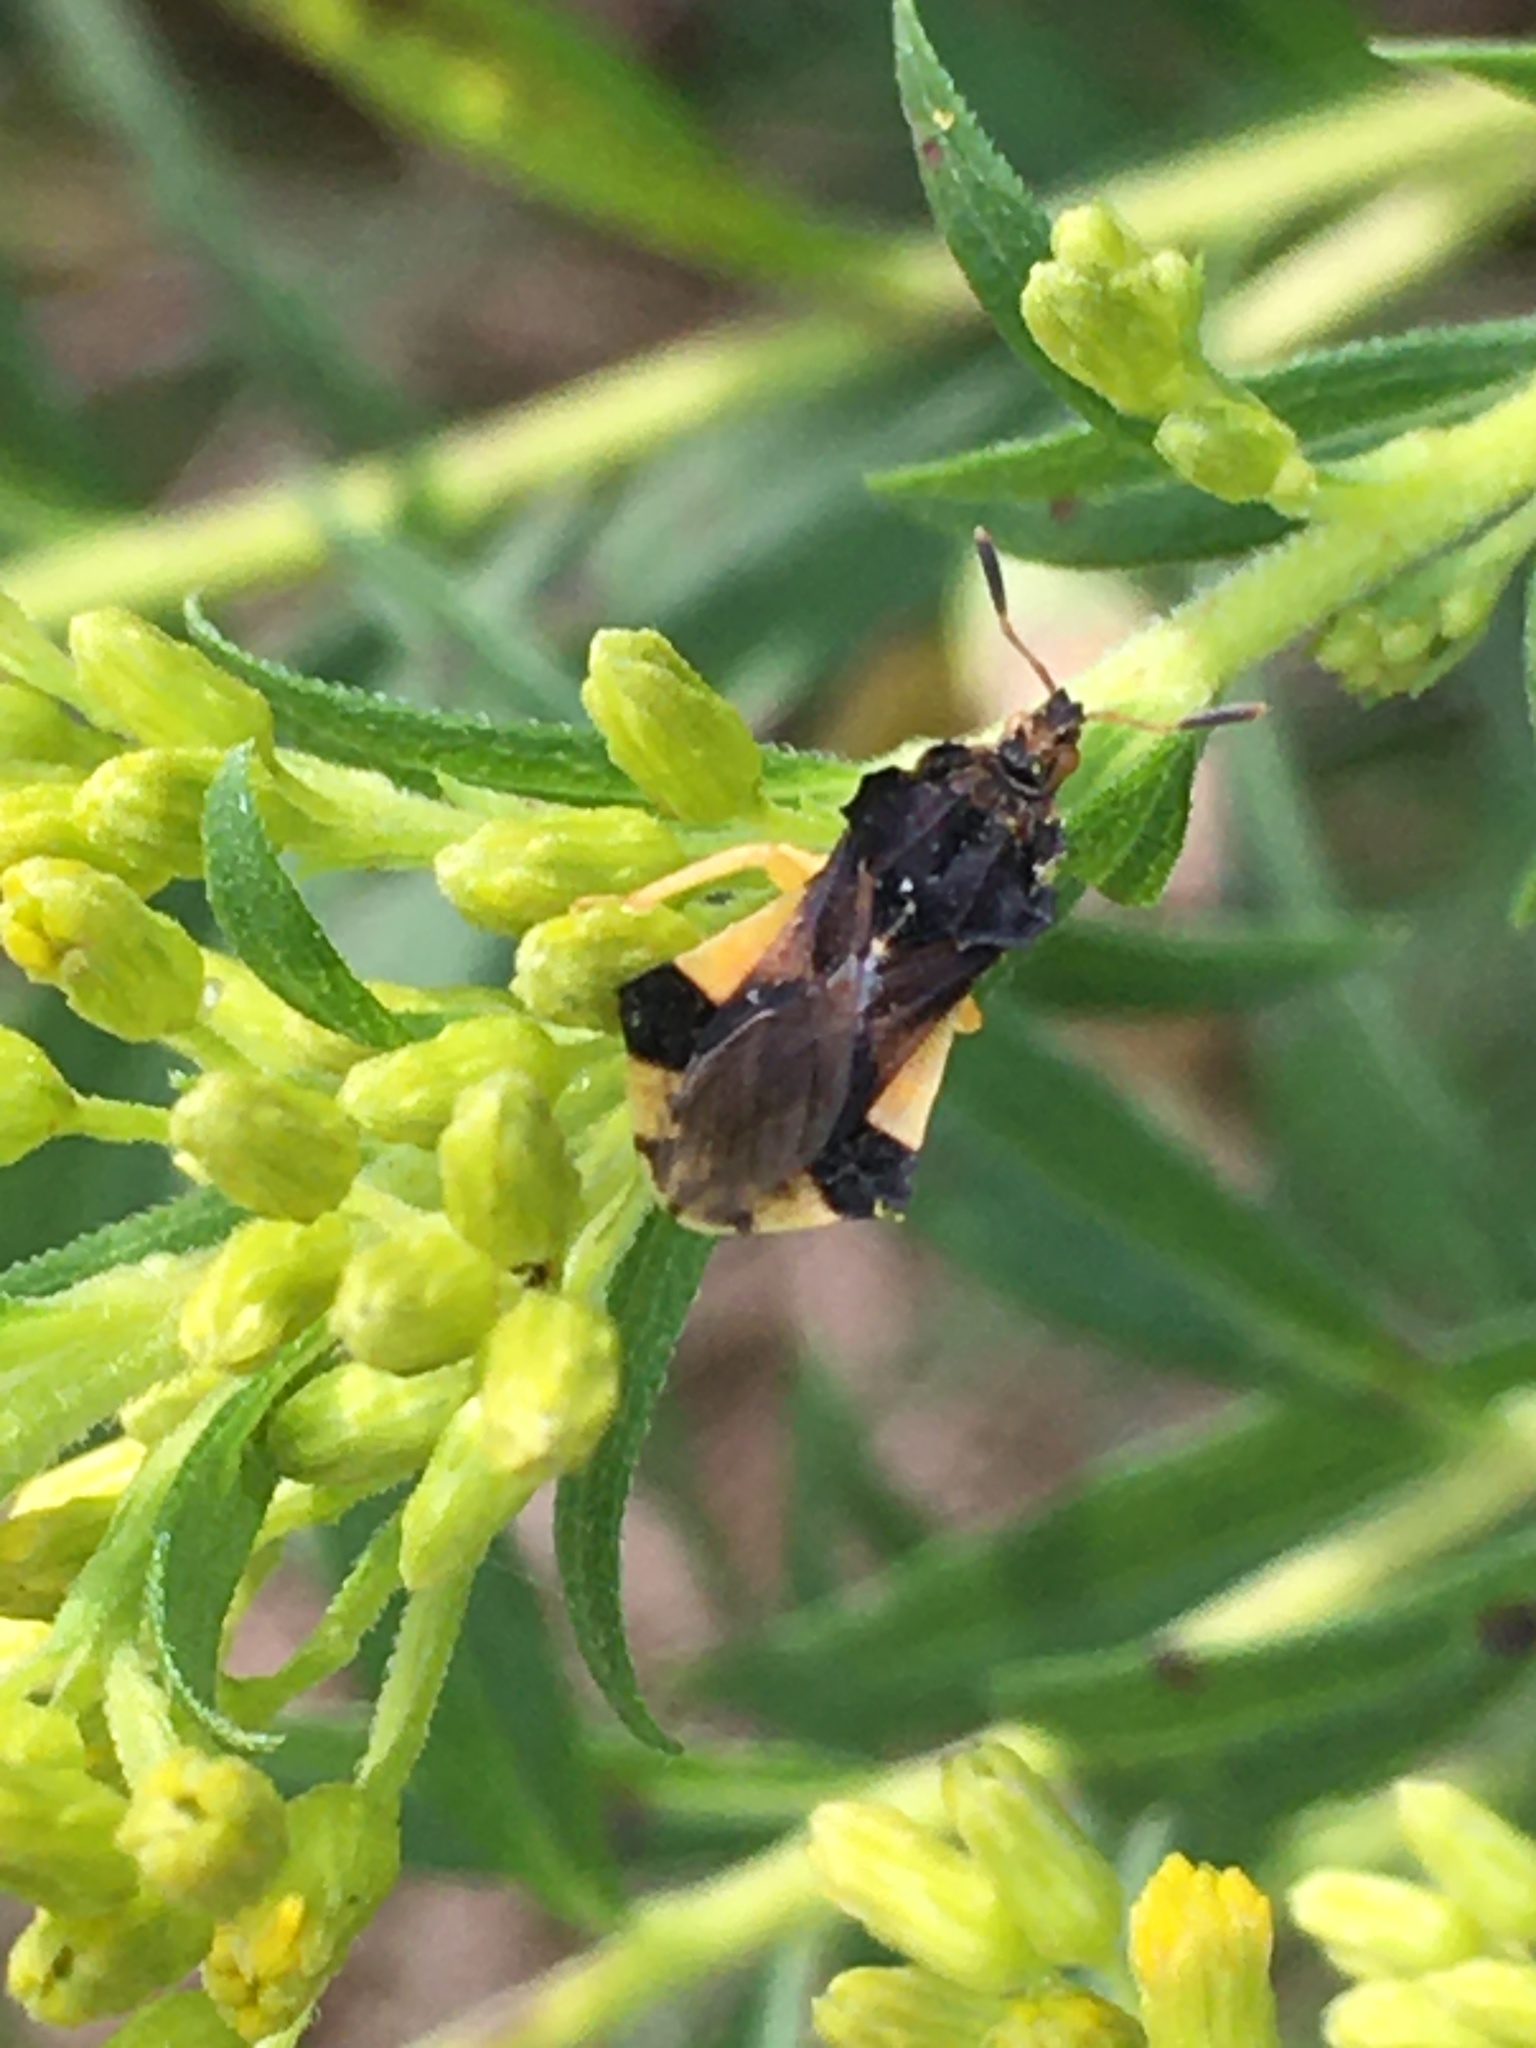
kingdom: Animalia
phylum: Arthropoda
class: Insecta
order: Hemiptera
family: Reduviidae
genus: Phymata
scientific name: Phymata pennsylvanica
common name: Pennsylvania ambush bug
